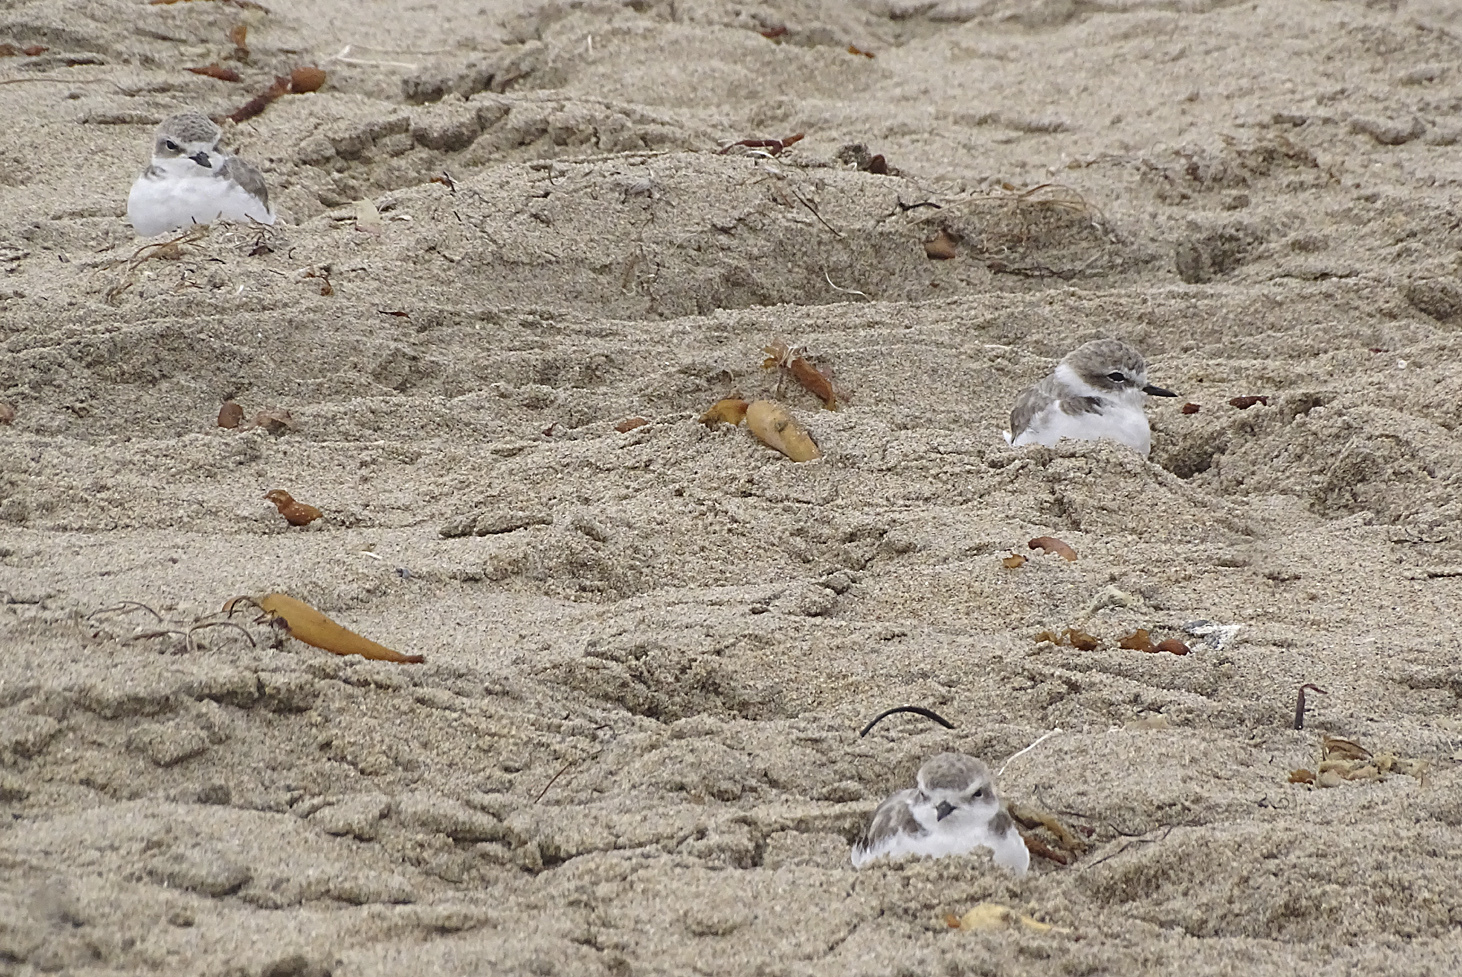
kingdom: Animalia
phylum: Chordata
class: Aves
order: Charadriiformes
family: Charadriidae
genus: Anarhynchus
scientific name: Anarhynchus
